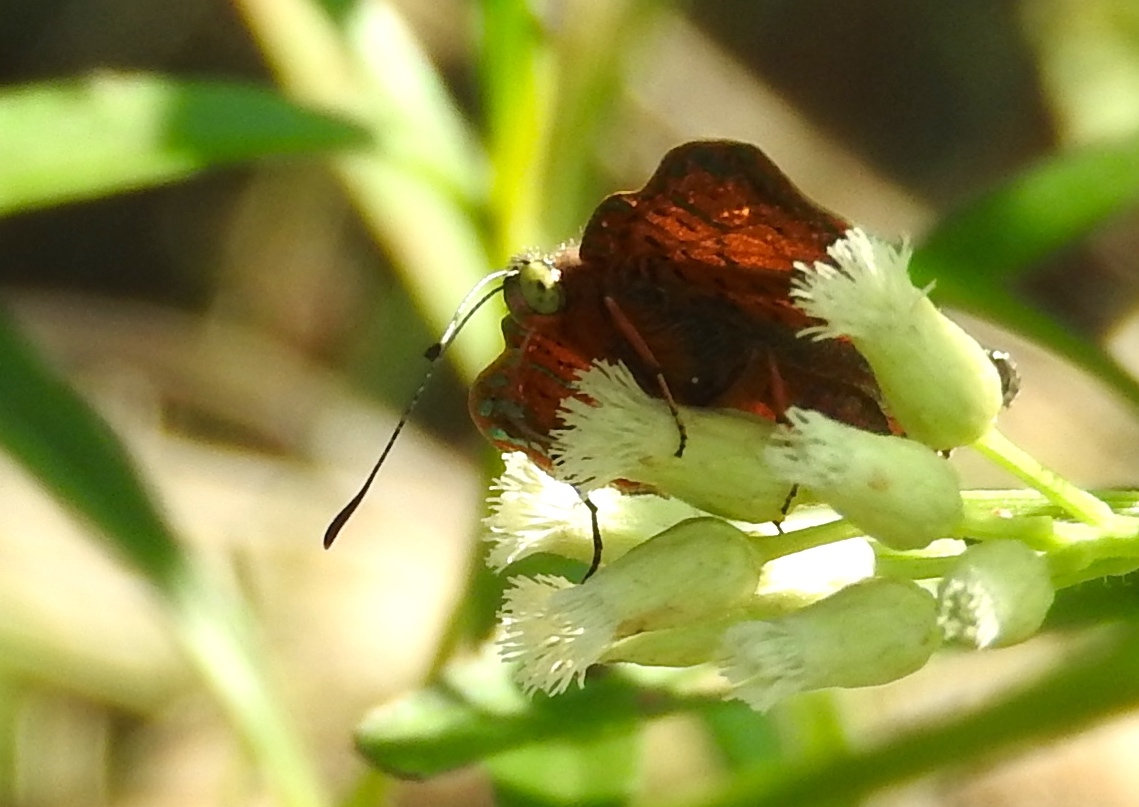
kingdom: Animalia
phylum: Arthropoda
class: Insecta
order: Lepidoptera
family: Geometridae
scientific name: Geometridae
